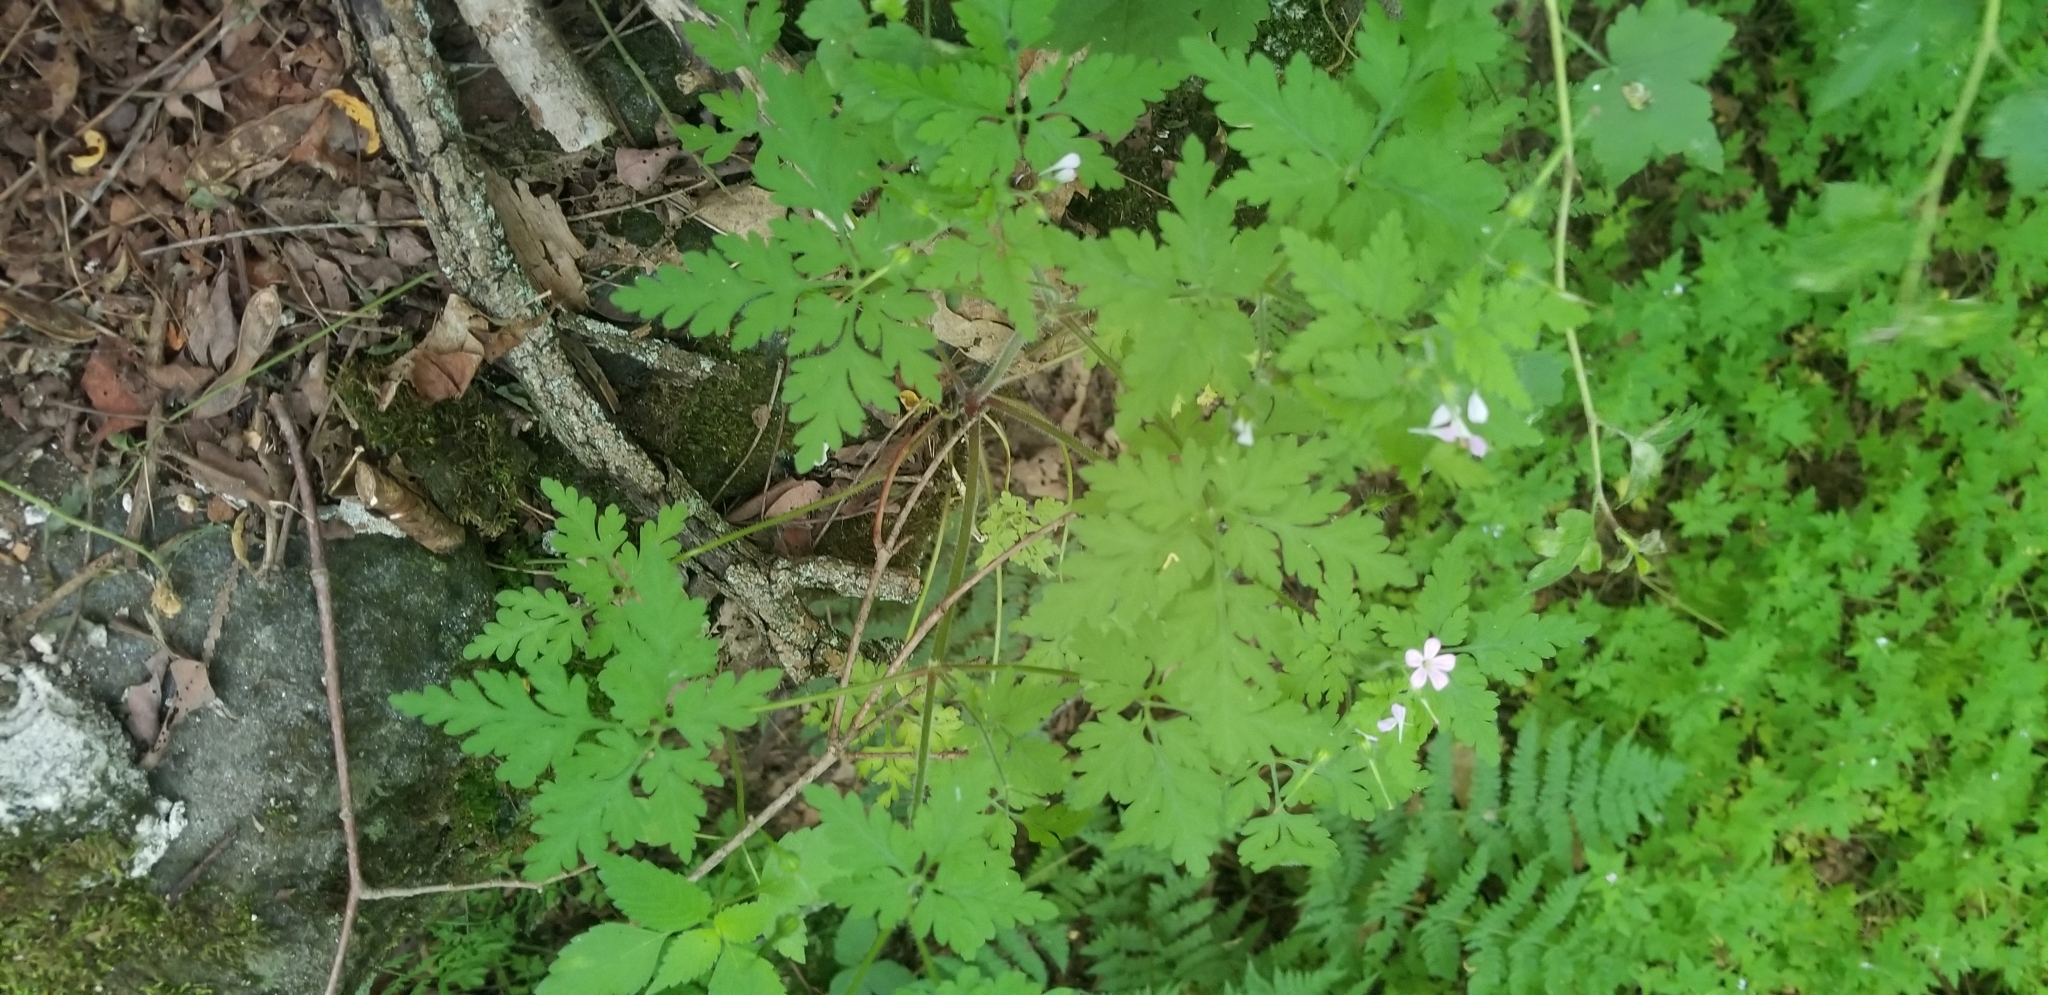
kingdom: Plantae
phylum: Tracheophyta
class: Magnoliopsida
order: Geraniales
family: Geraniaceae
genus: Geranium
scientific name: Geranium robertianum
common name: Herb-robert
